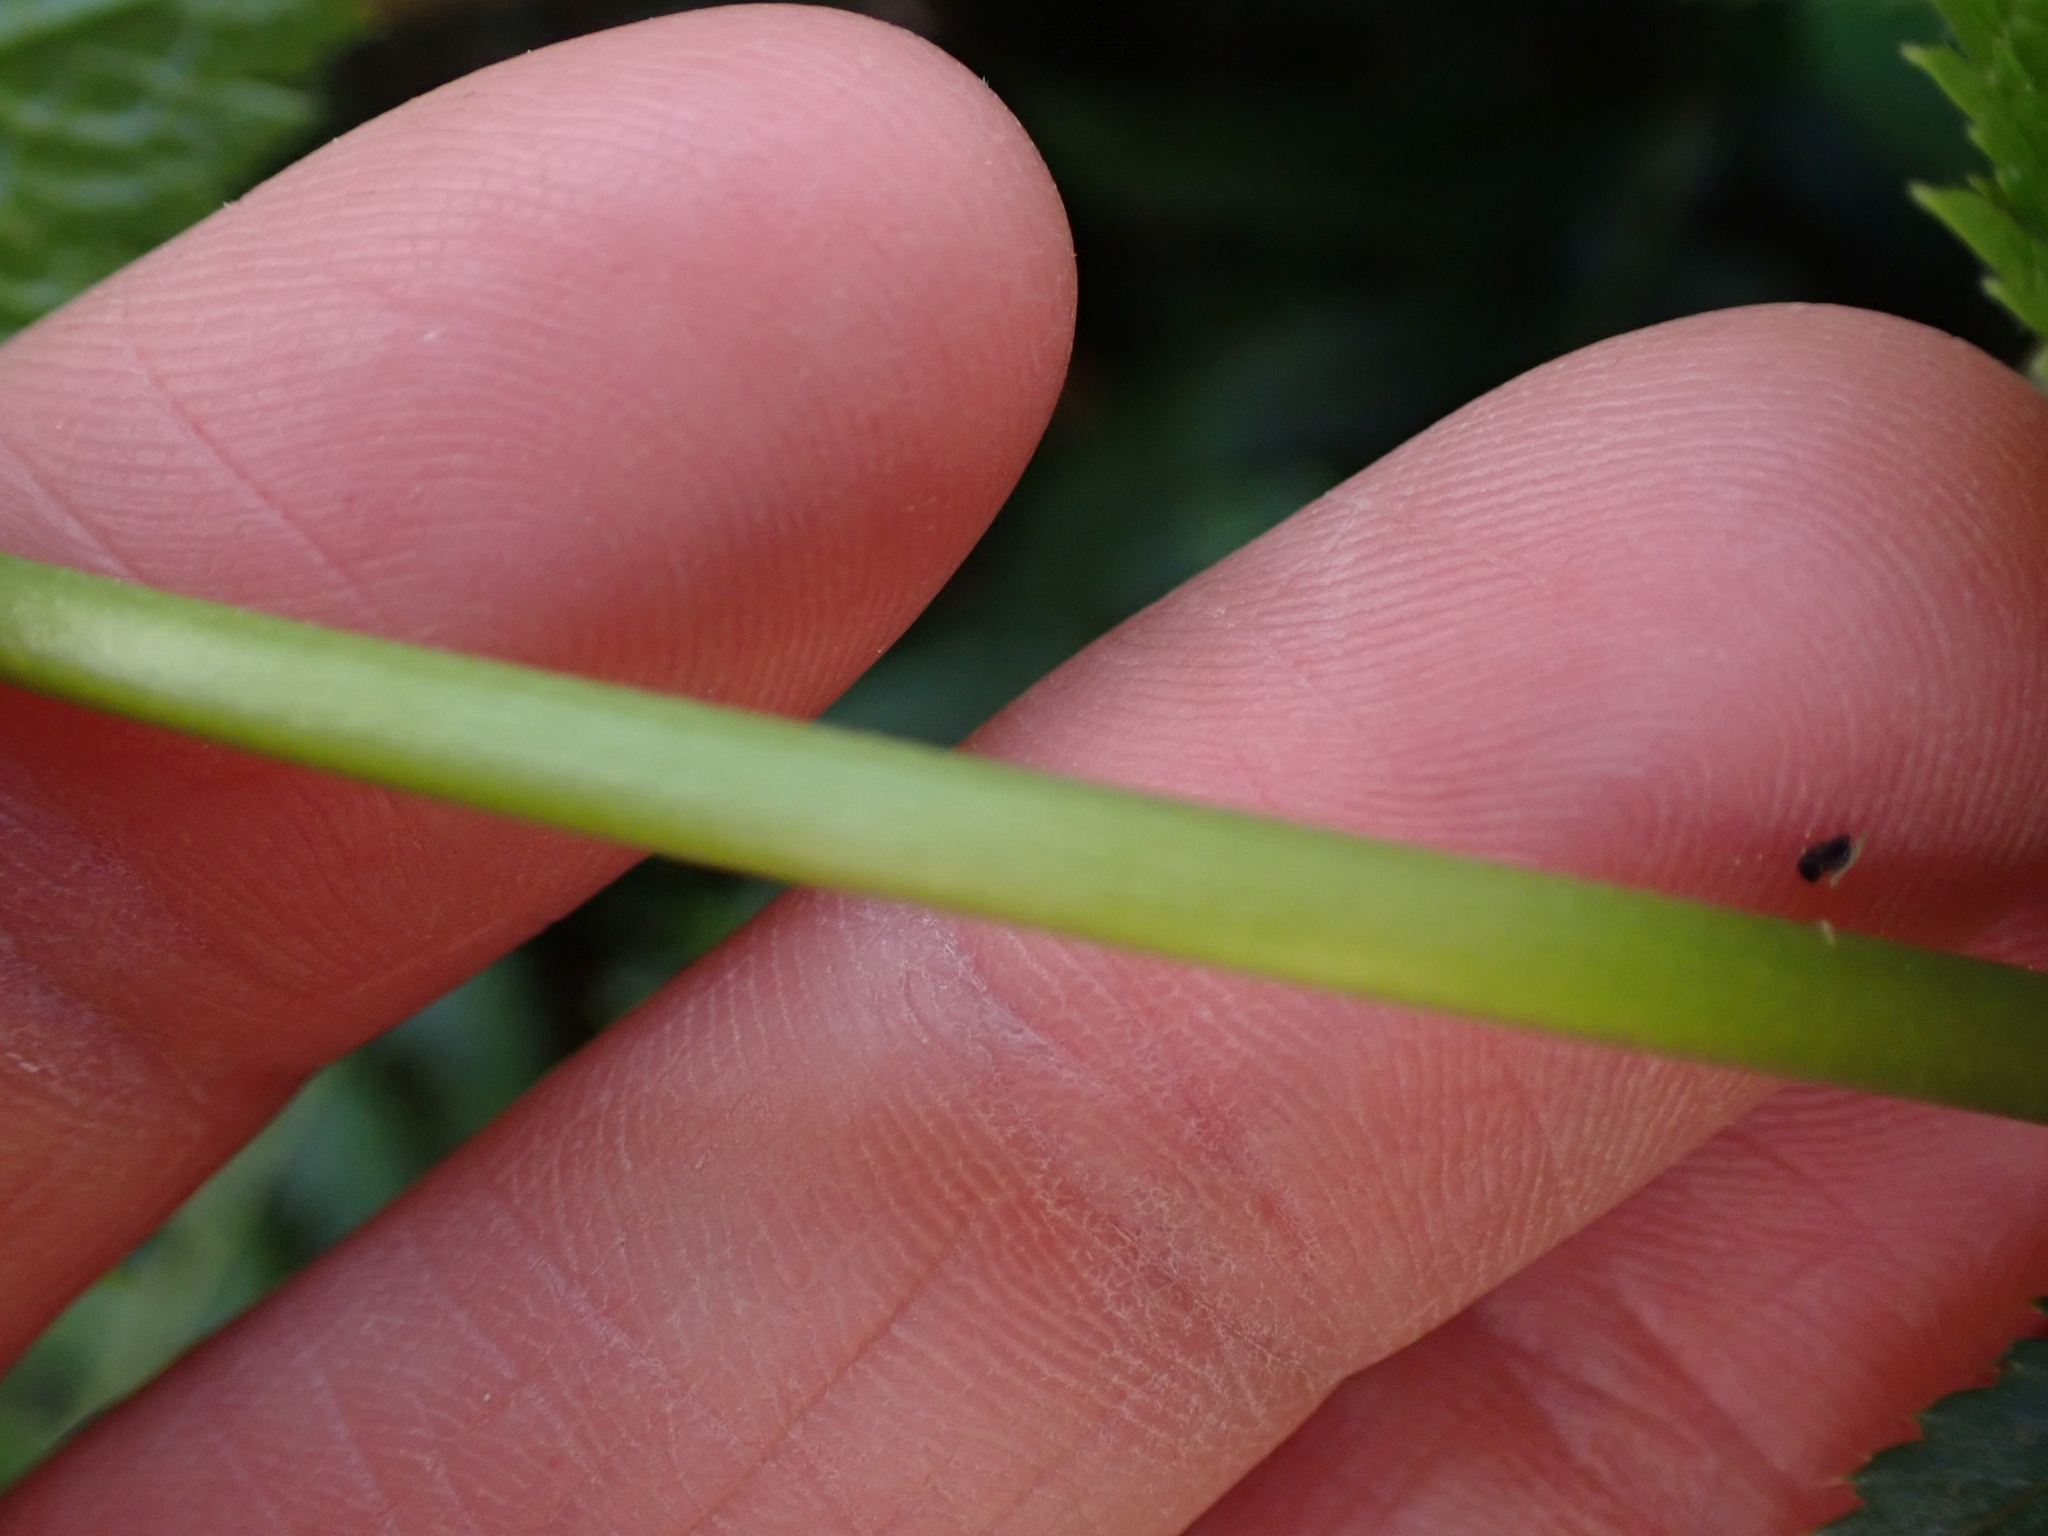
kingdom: Plantae
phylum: Tracheophyta
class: Magnoliopsida
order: Ranunculales
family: Ranunculaceae
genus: Trautvetteria
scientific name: Trautvetteria carolinensis
